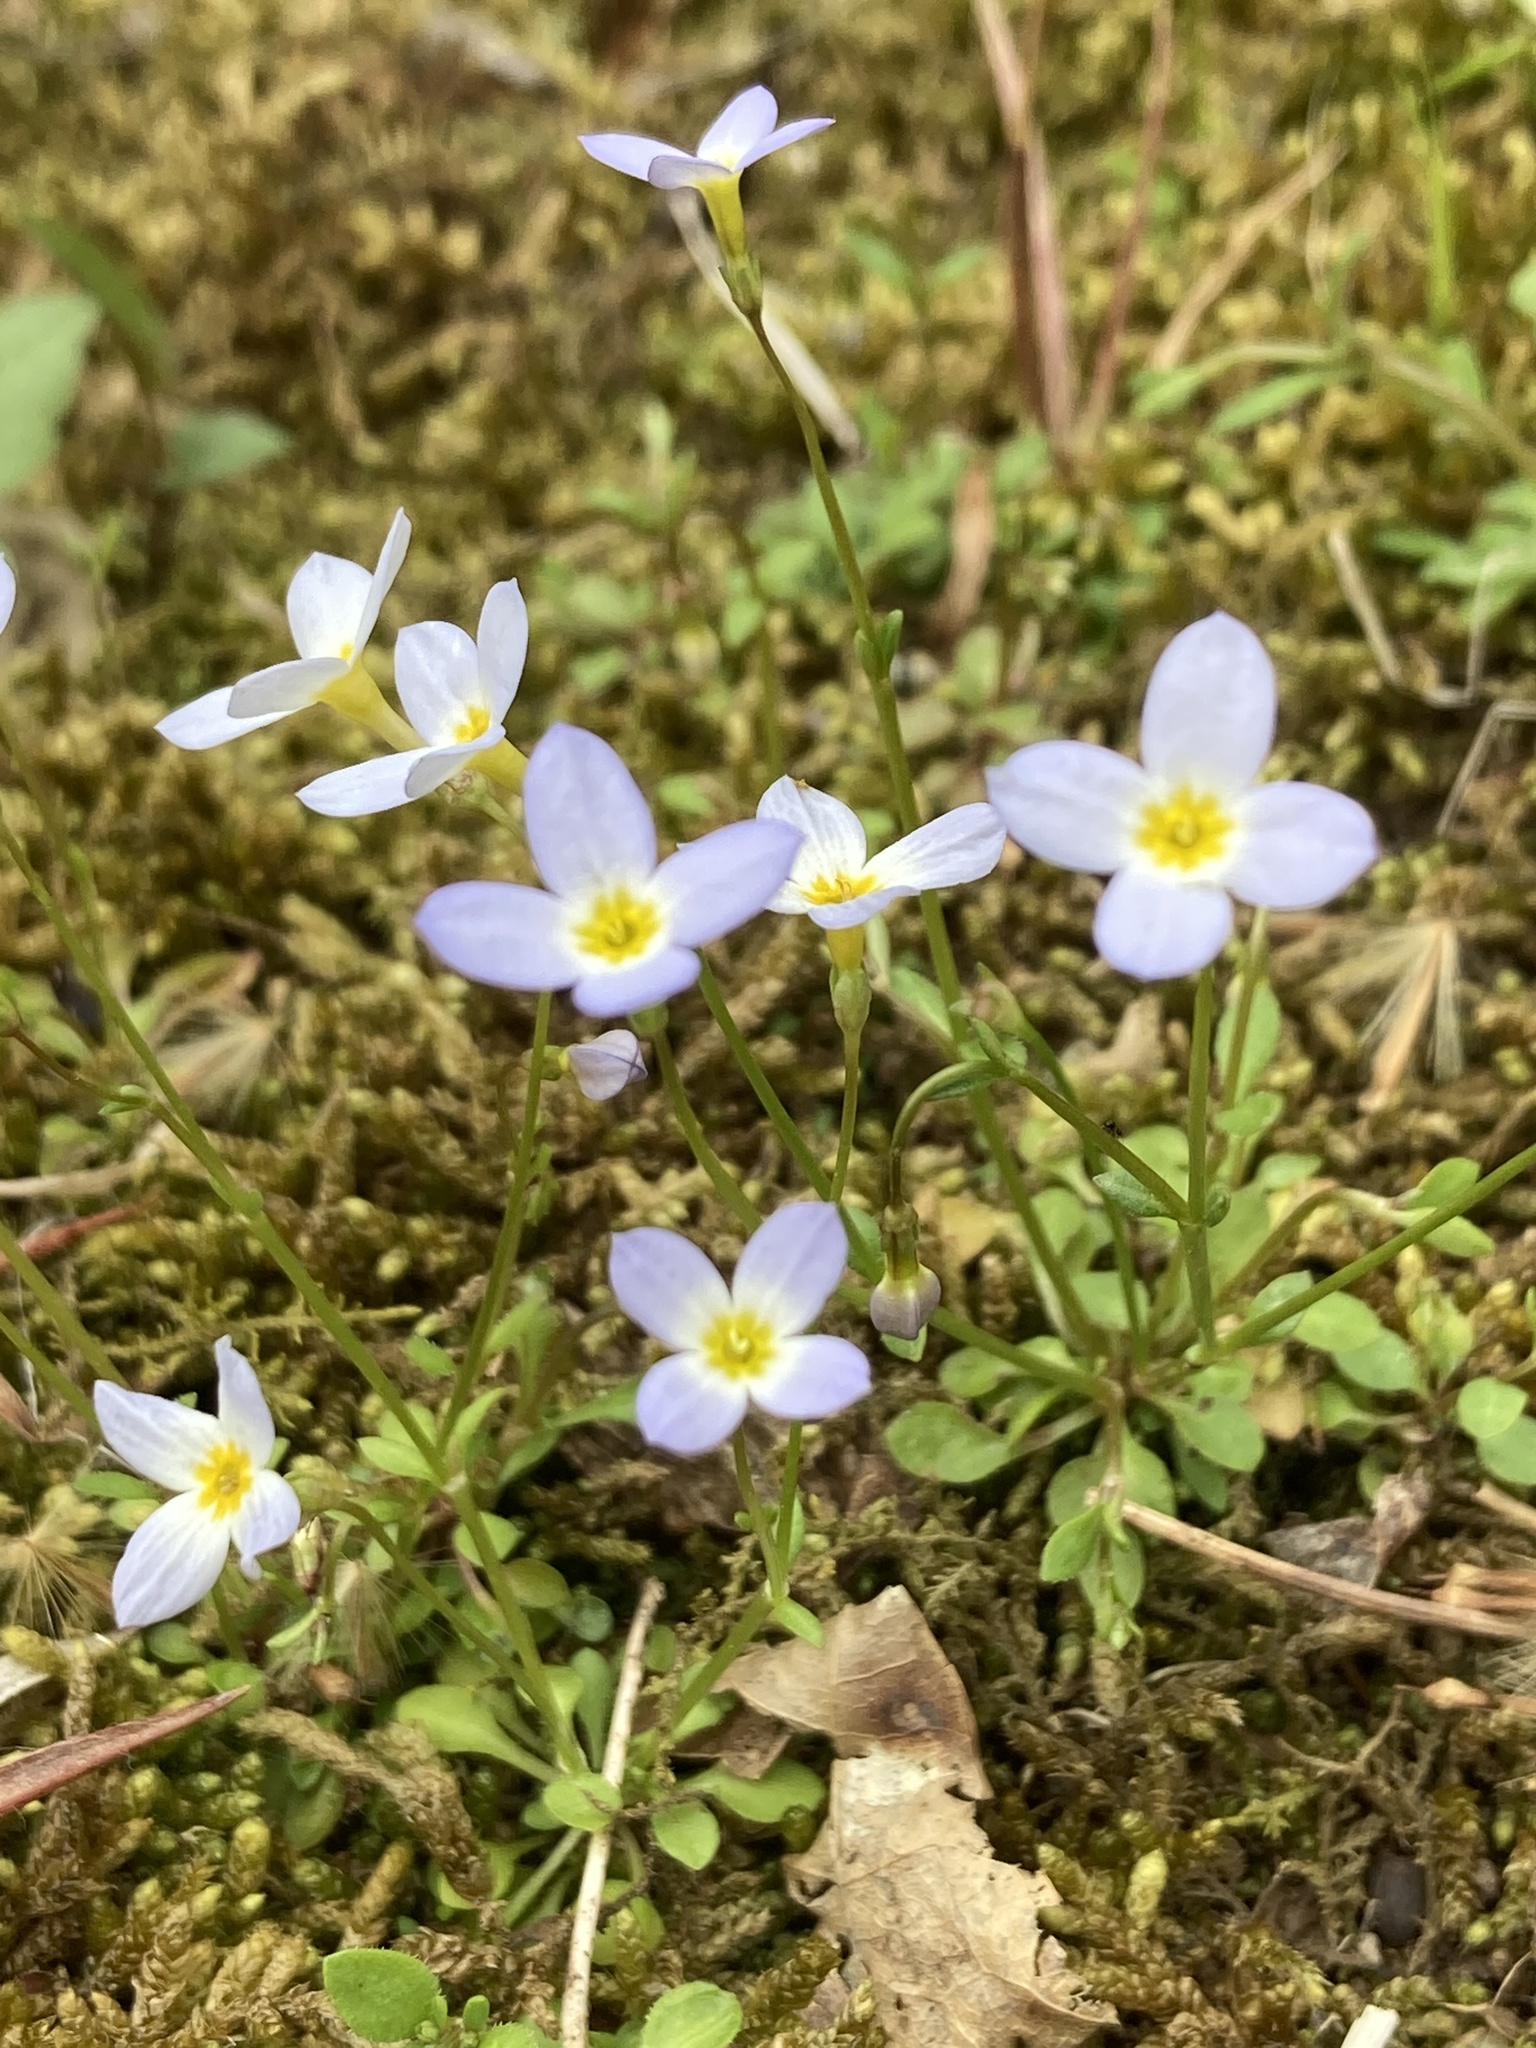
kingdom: Plantae
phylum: Tracheophyta
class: Magnoliopsida
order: Gentianales
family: Rubiaceae
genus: Houstonia
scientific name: Houstonia caerulea
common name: Bluets
